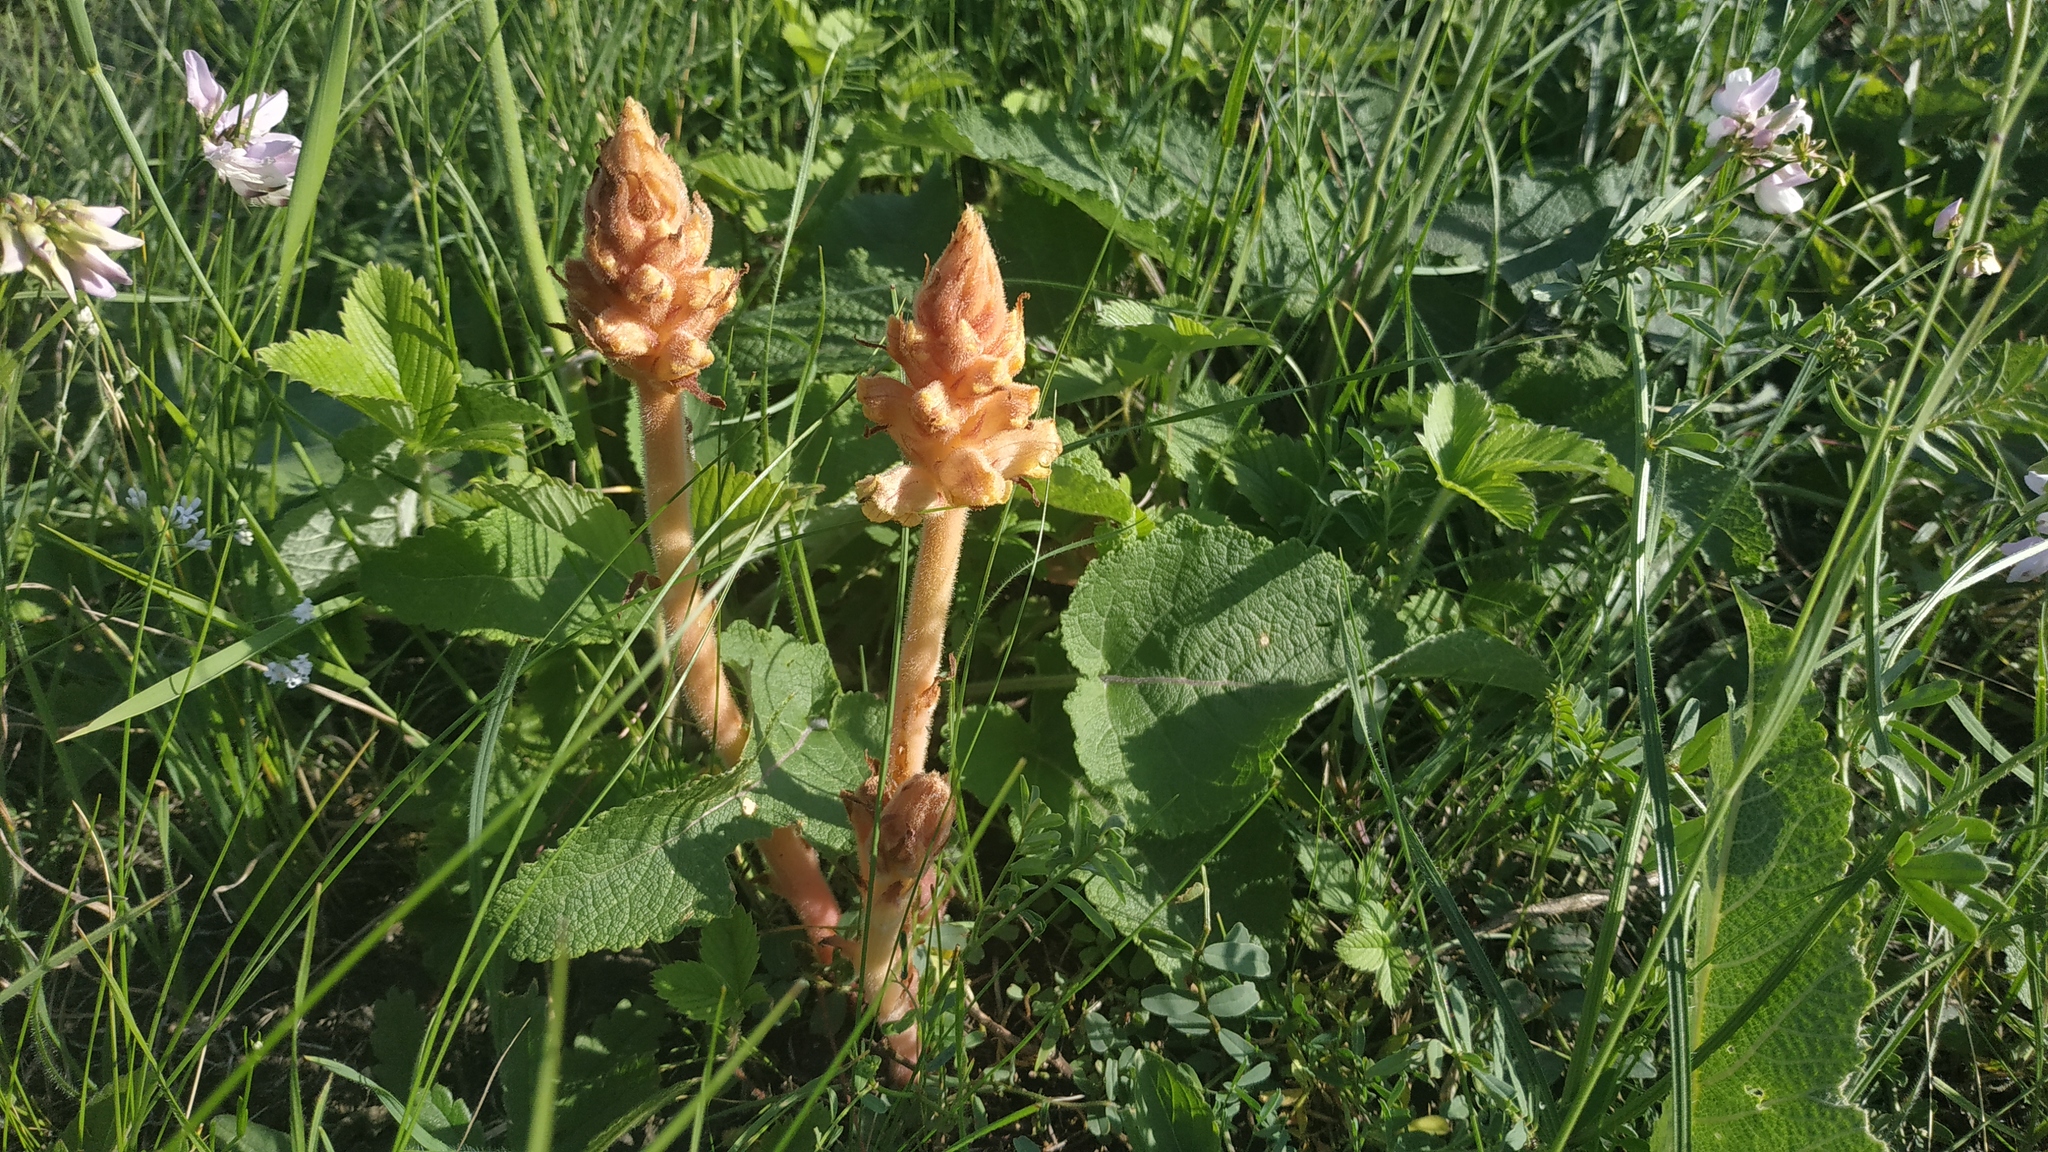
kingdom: Plantae
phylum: Tracheophyta
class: Magnoliopsida
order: Lamiales
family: Orobanchaceae
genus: Orobanche
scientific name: Orobanche alba
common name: Thyme broomrape
